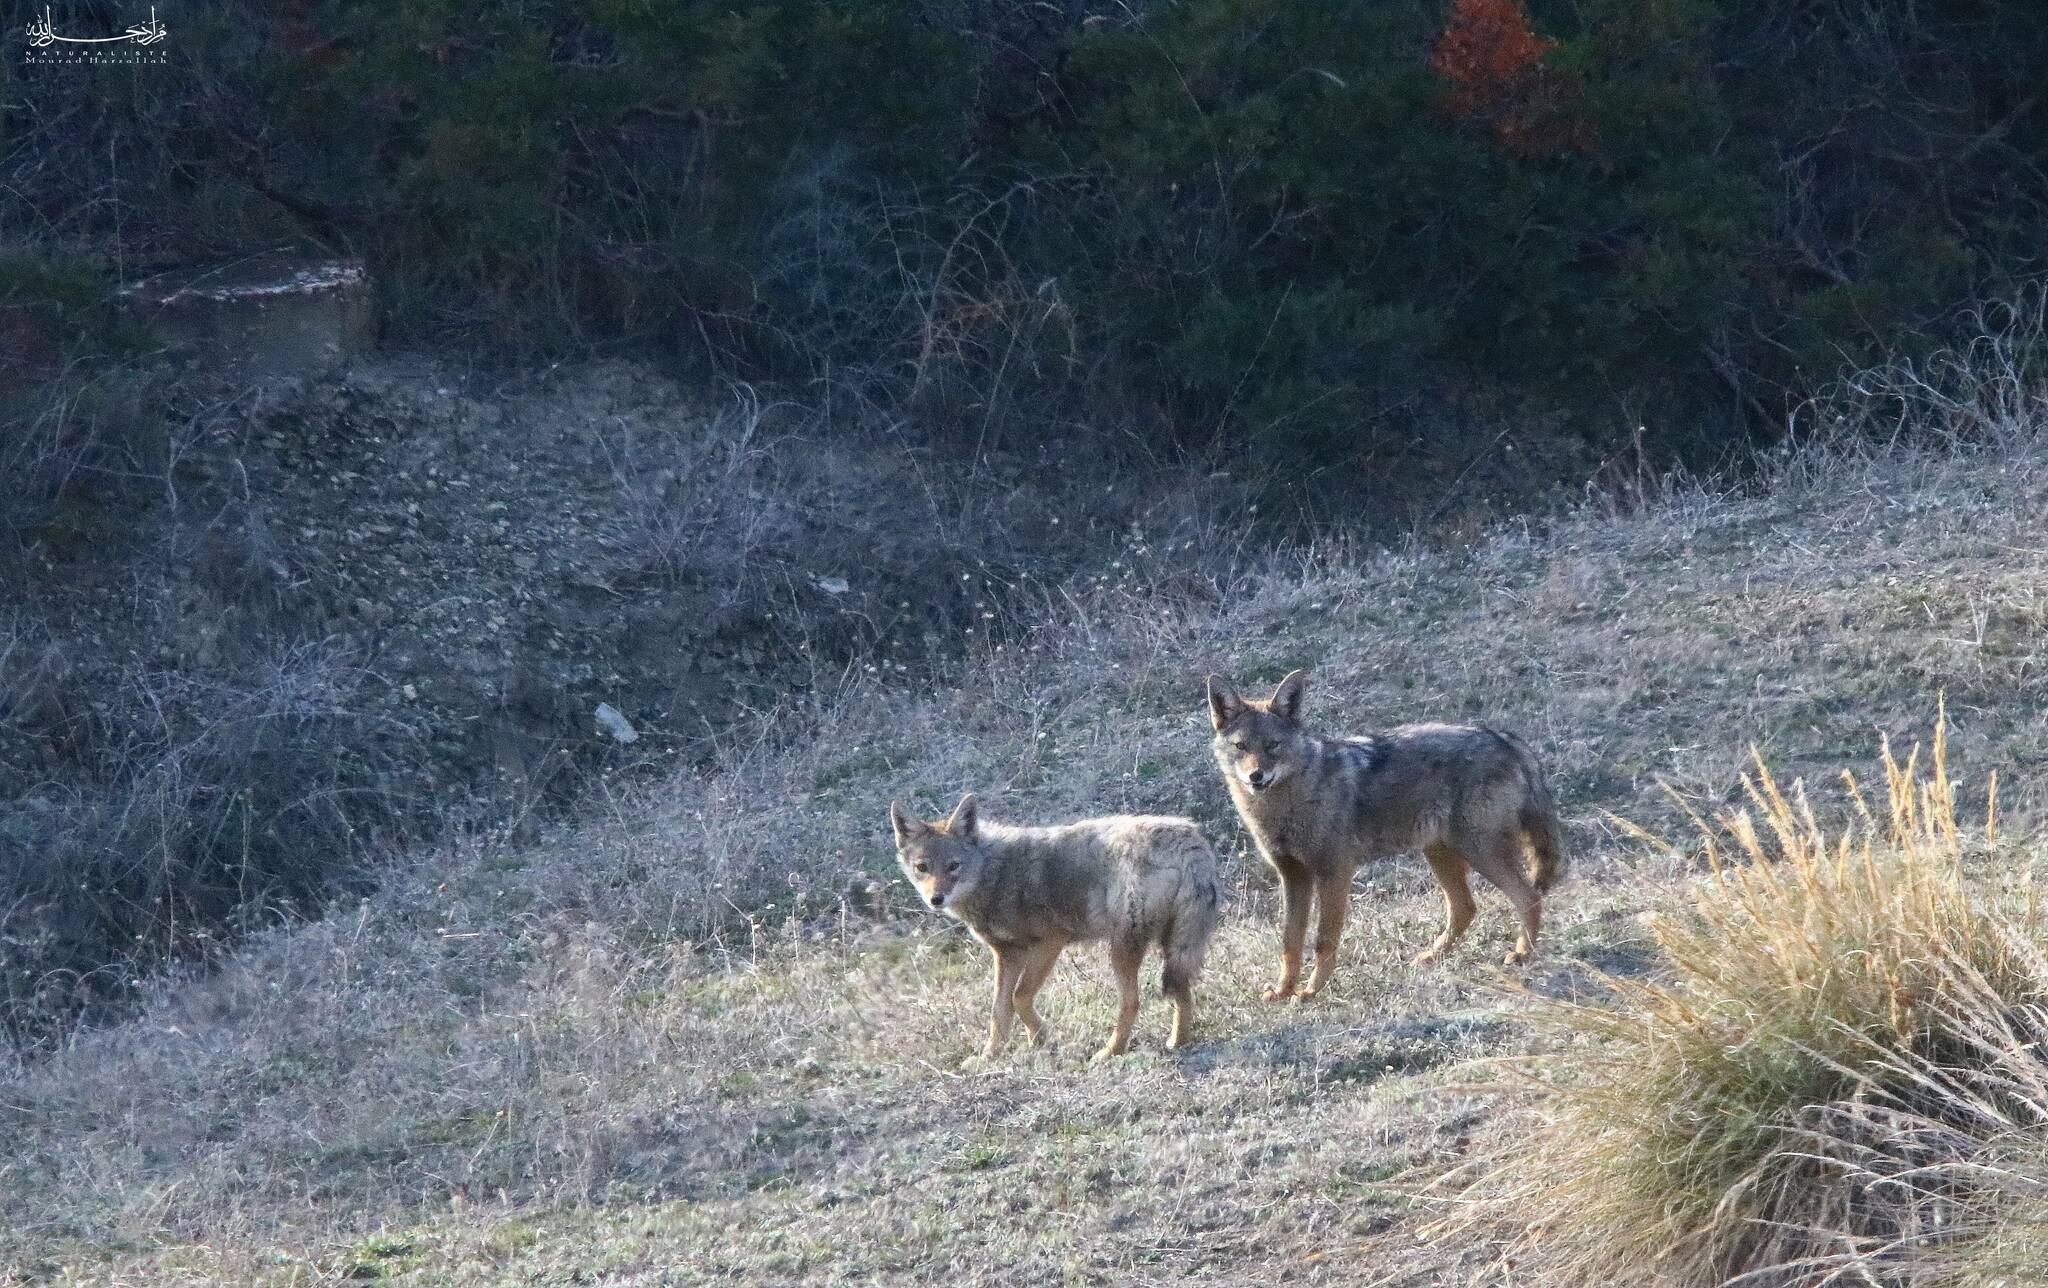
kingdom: Animalia
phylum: Chordata
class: Mammalia
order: Carnivora
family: Canidae
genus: Canis
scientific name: Canis lupaster
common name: African golden wolf
